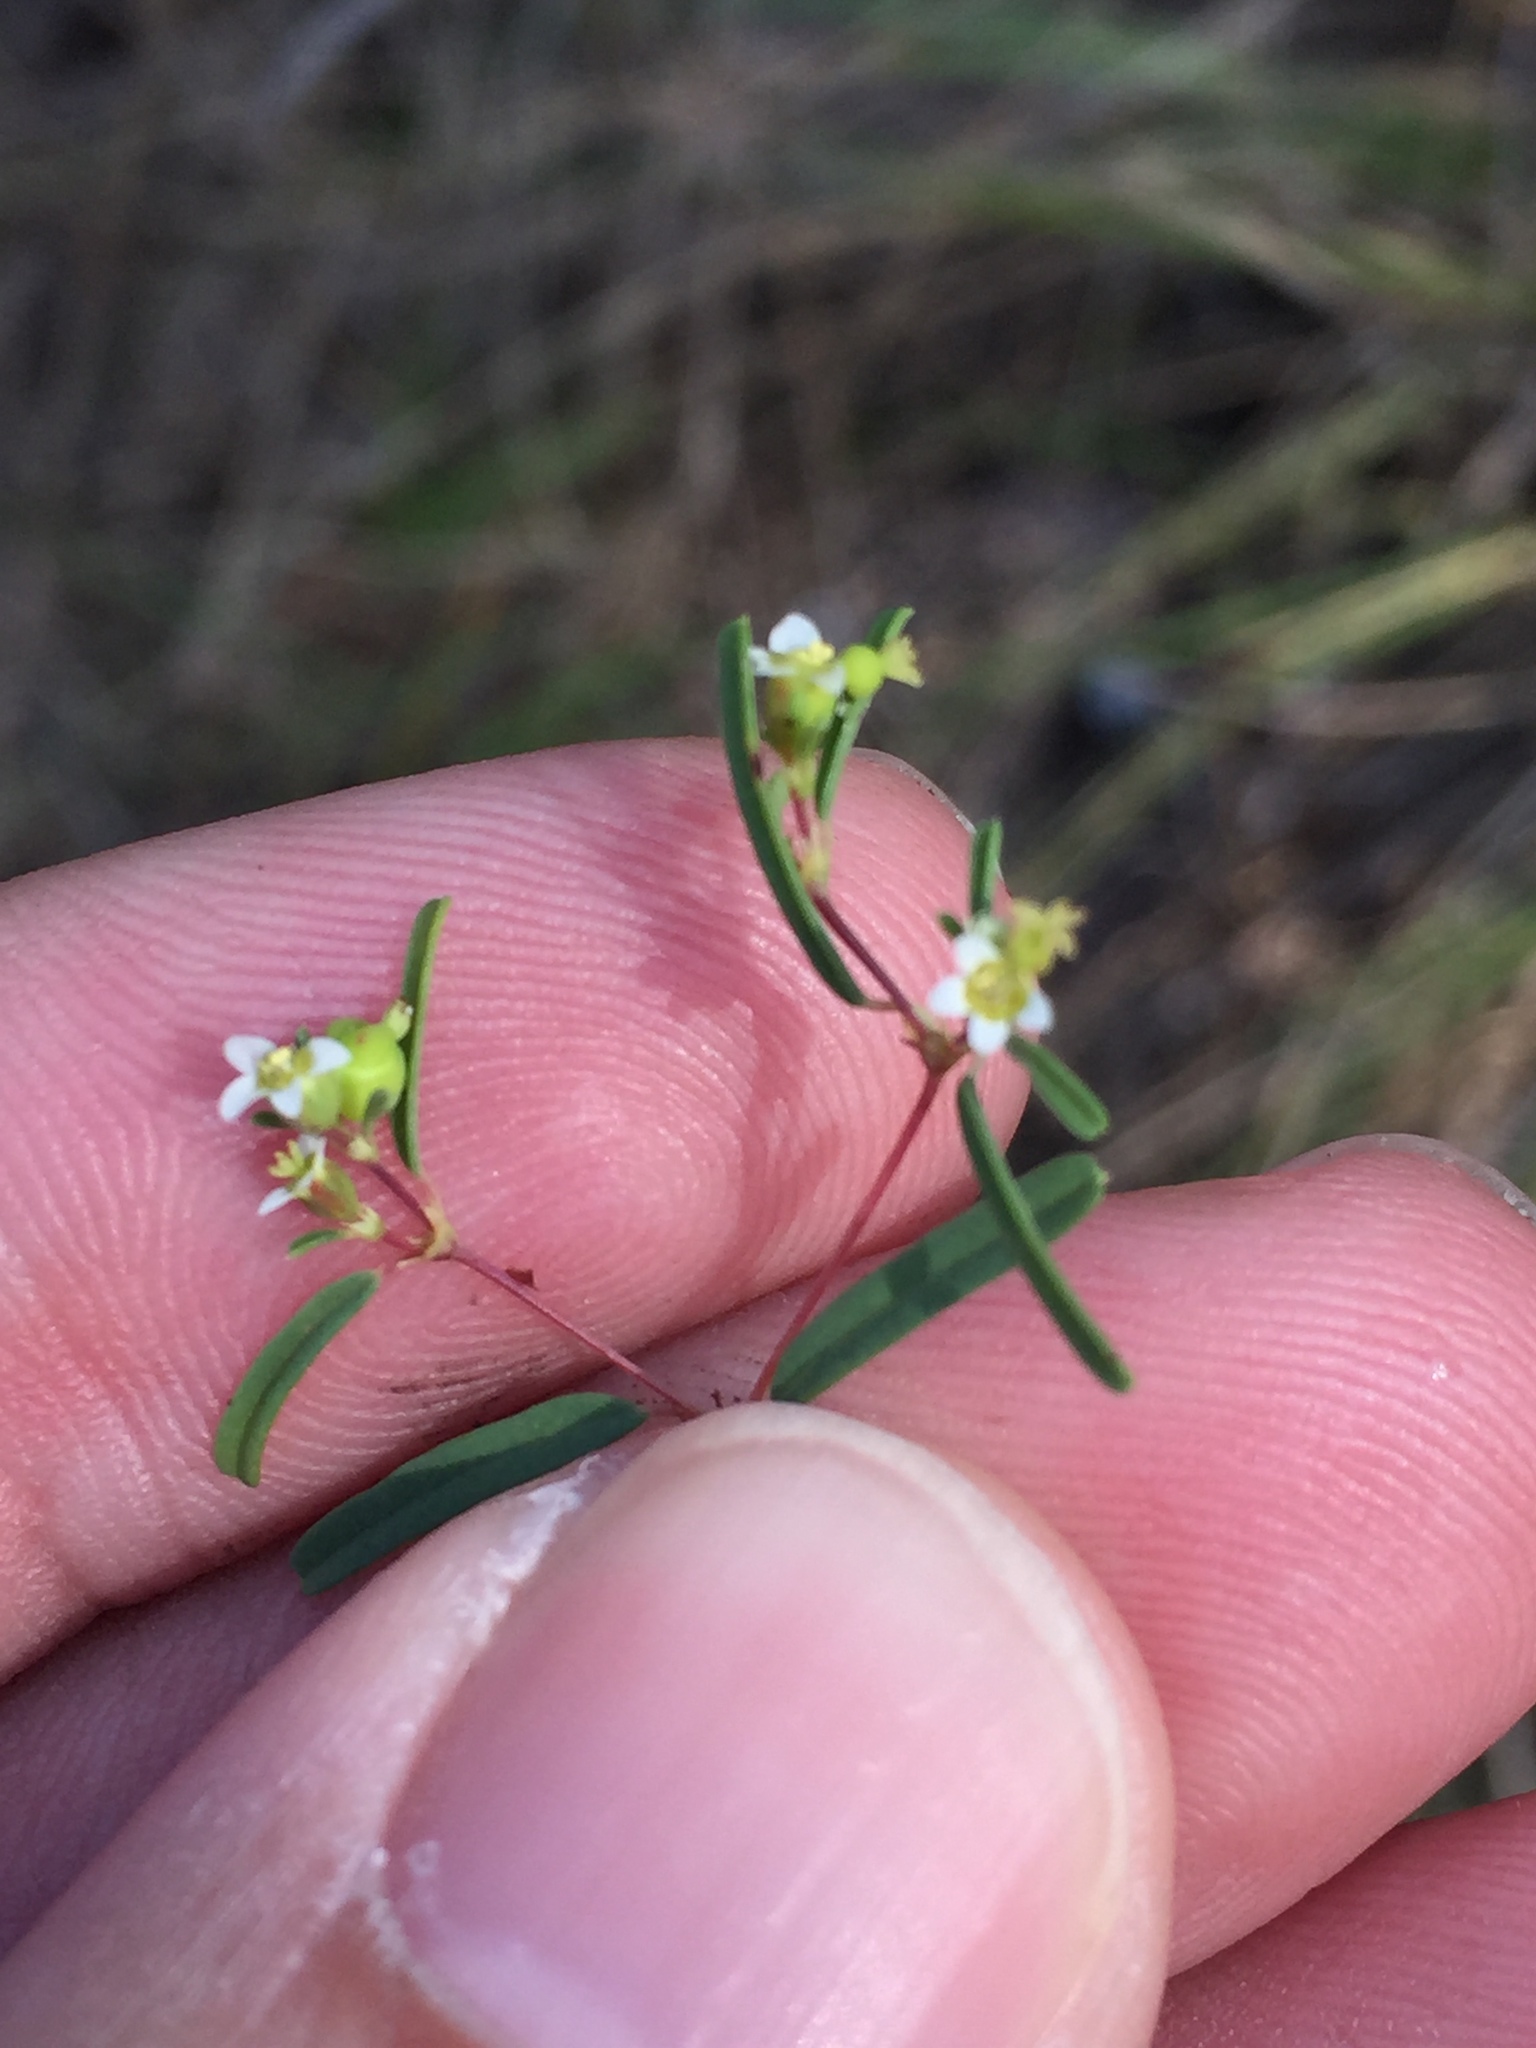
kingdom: Plantae
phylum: Tracheophyta
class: Magnoliopsida
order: Malpighiales
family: Euphorbiaceae
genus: Euphorbia
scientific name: Euphorbia missurica
